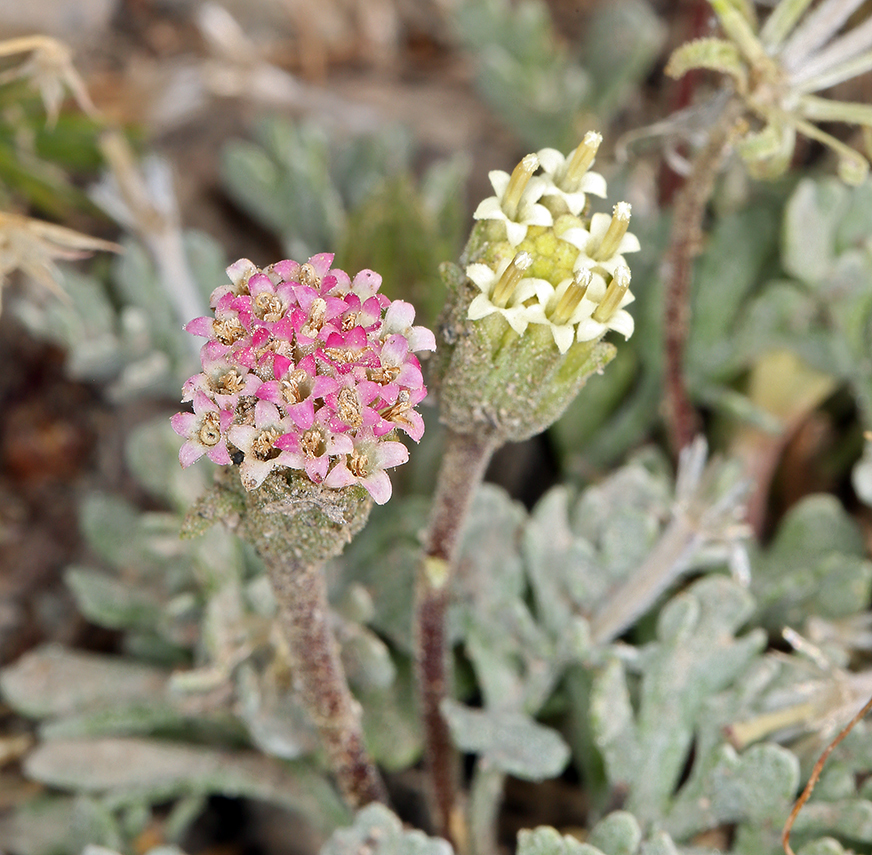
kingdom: Plantae
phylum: Tracheophyta
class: Magnoliopsida
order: Asterales
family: Asteraceae
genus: Chaenactis
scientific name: Chaenactis nevadensis
